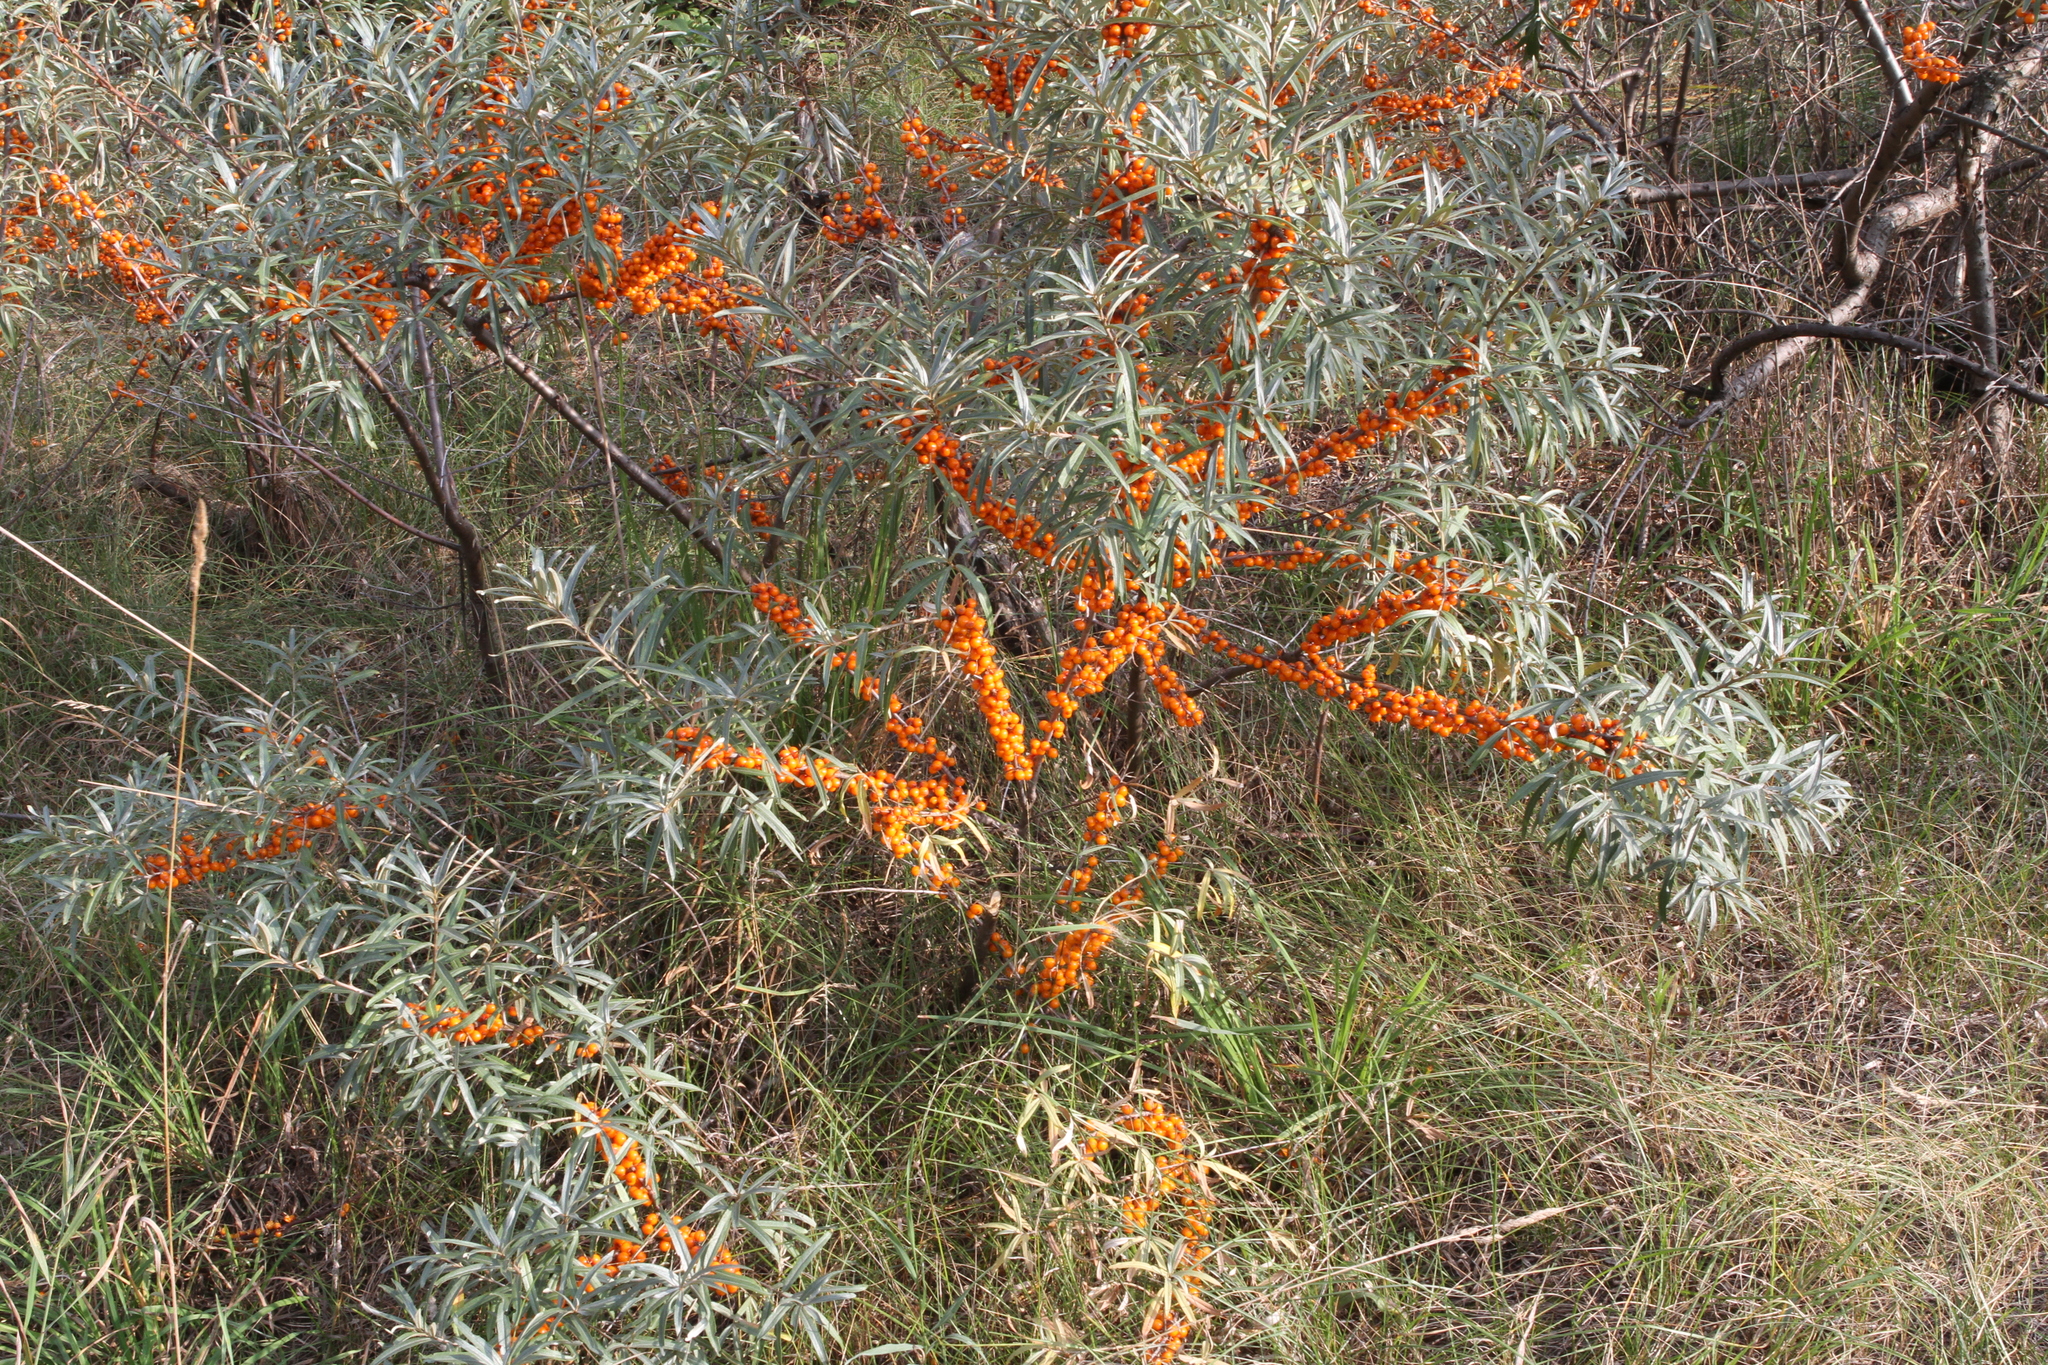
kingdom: Plantae
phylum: Tracheophyta
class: Magnoliopsida
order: Rosales
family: Elaeagnaceae
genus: Hippophae
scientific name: Hippophae rhamnoides
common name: Sea-buckthorn
